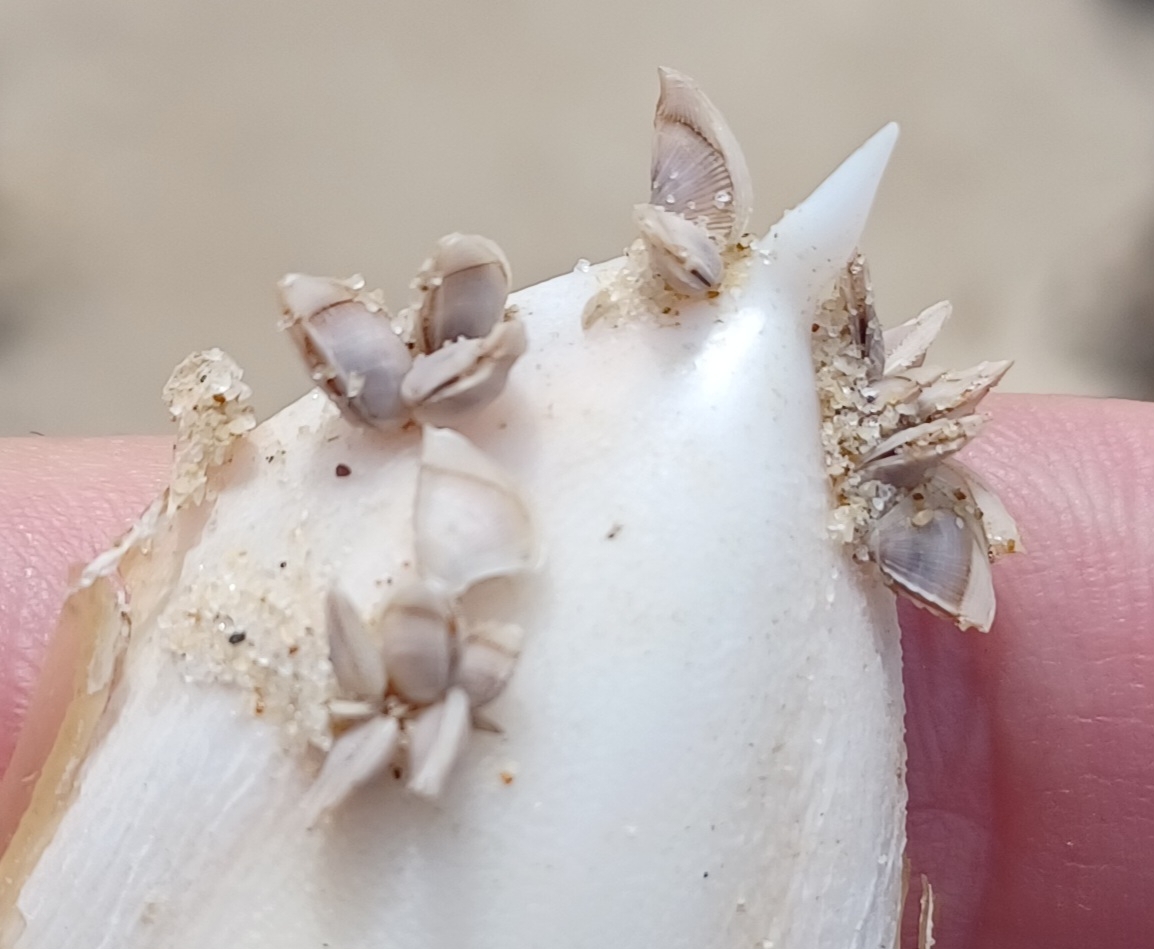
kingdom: Animalia
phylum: Arthropoda
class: Maxillopoda
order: Pedunculata
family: Lepadidae
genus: Lepas
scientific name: Lepas pectinata
